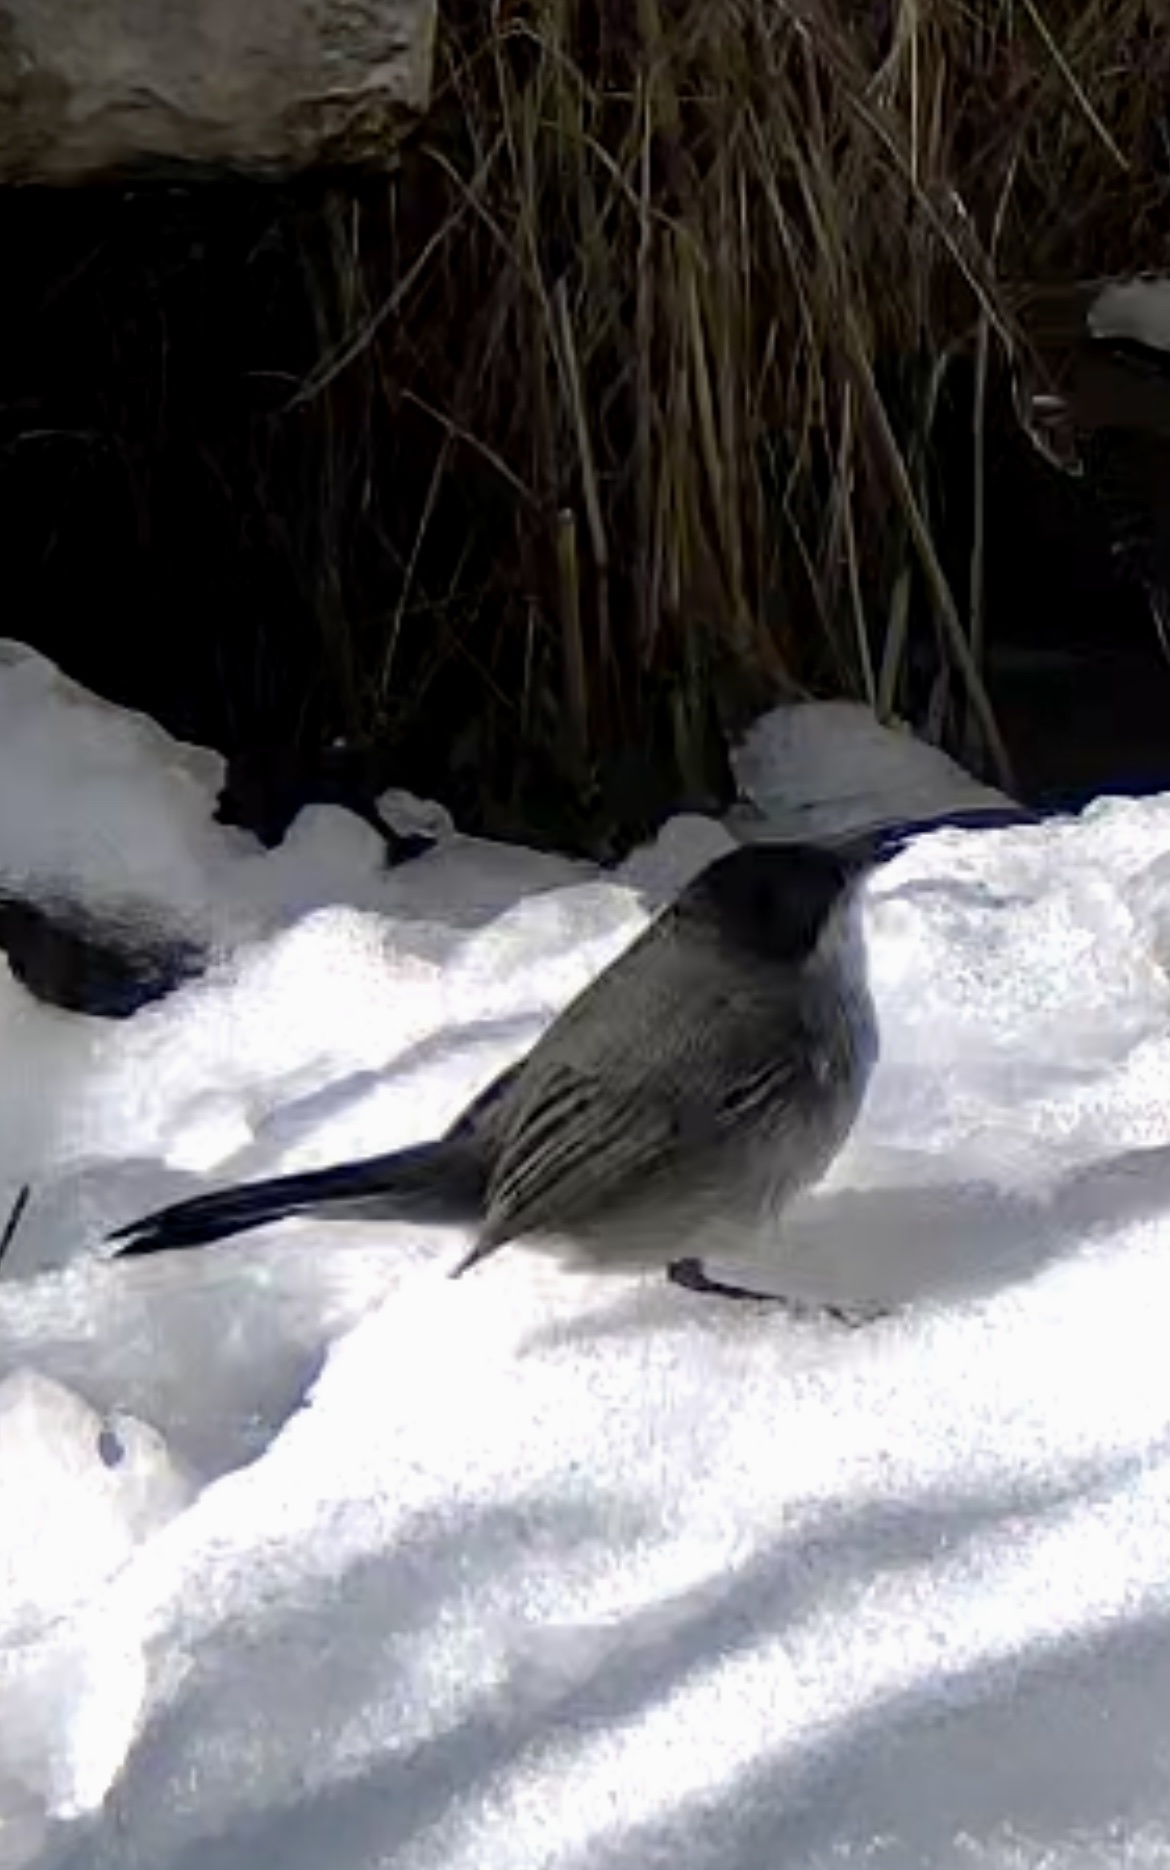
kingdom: Animalia
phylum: Chordata
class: Aves
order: Passeriformes
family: Sylviidae
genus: Curruca
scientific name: Curruca melanocephala
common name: Sardinian warbler
